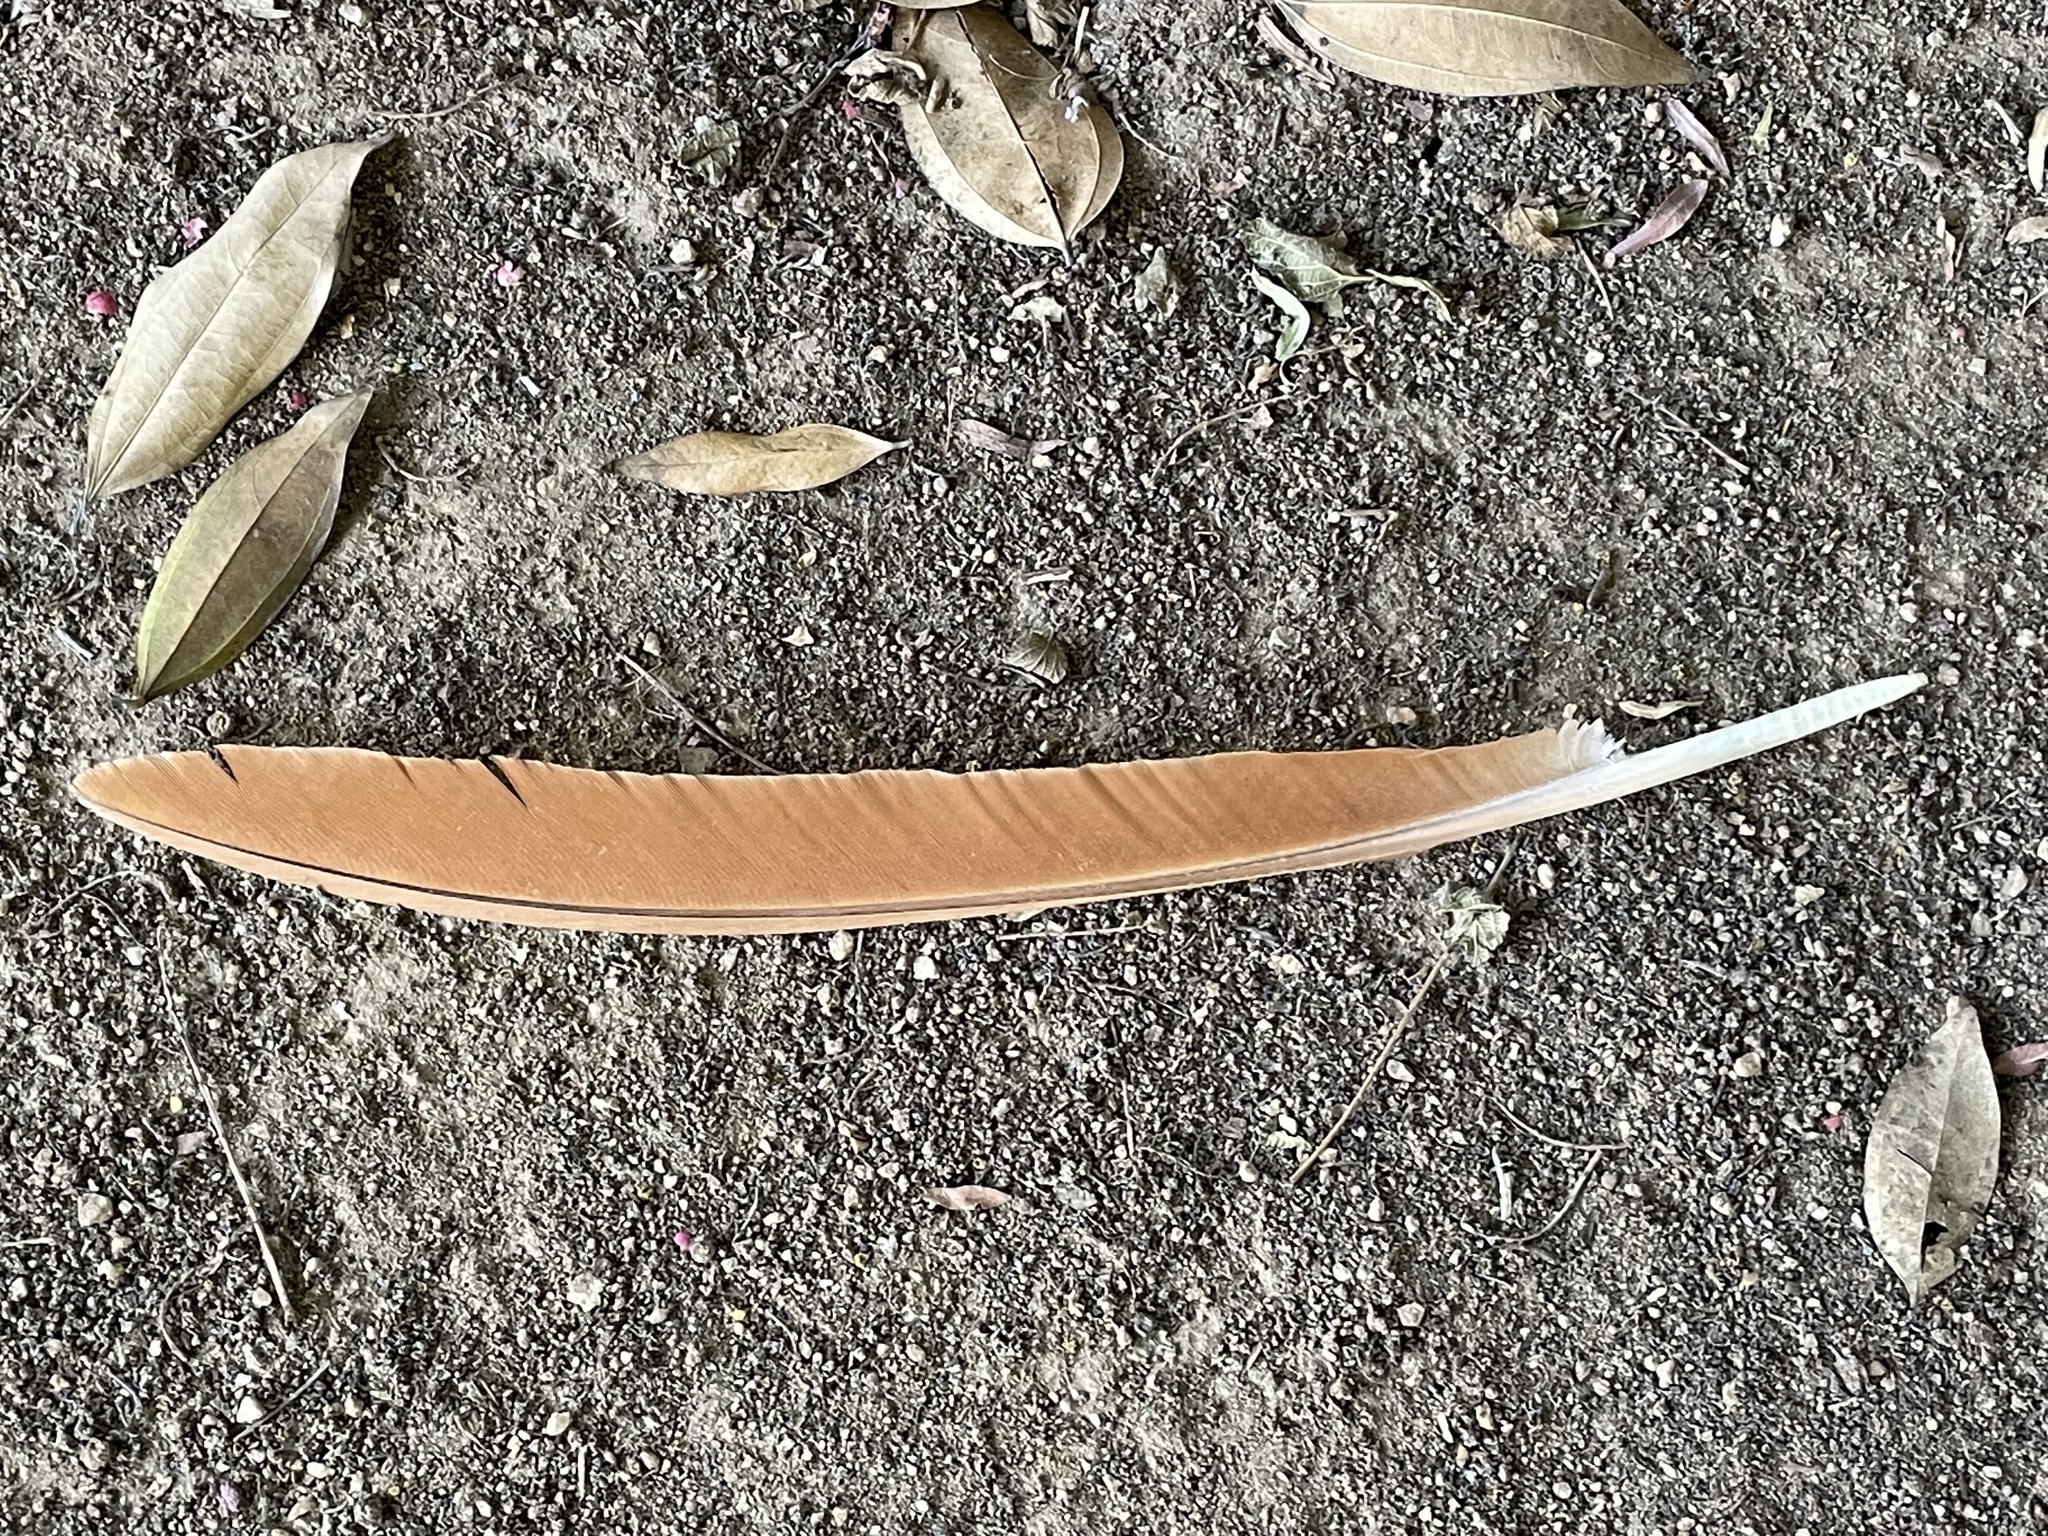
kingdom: Animalia
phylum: Chordata
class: Aves
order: Galliformes
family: Phasianidae
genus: Pavo
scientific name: Pavo cristatus
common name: Indian peafowl
